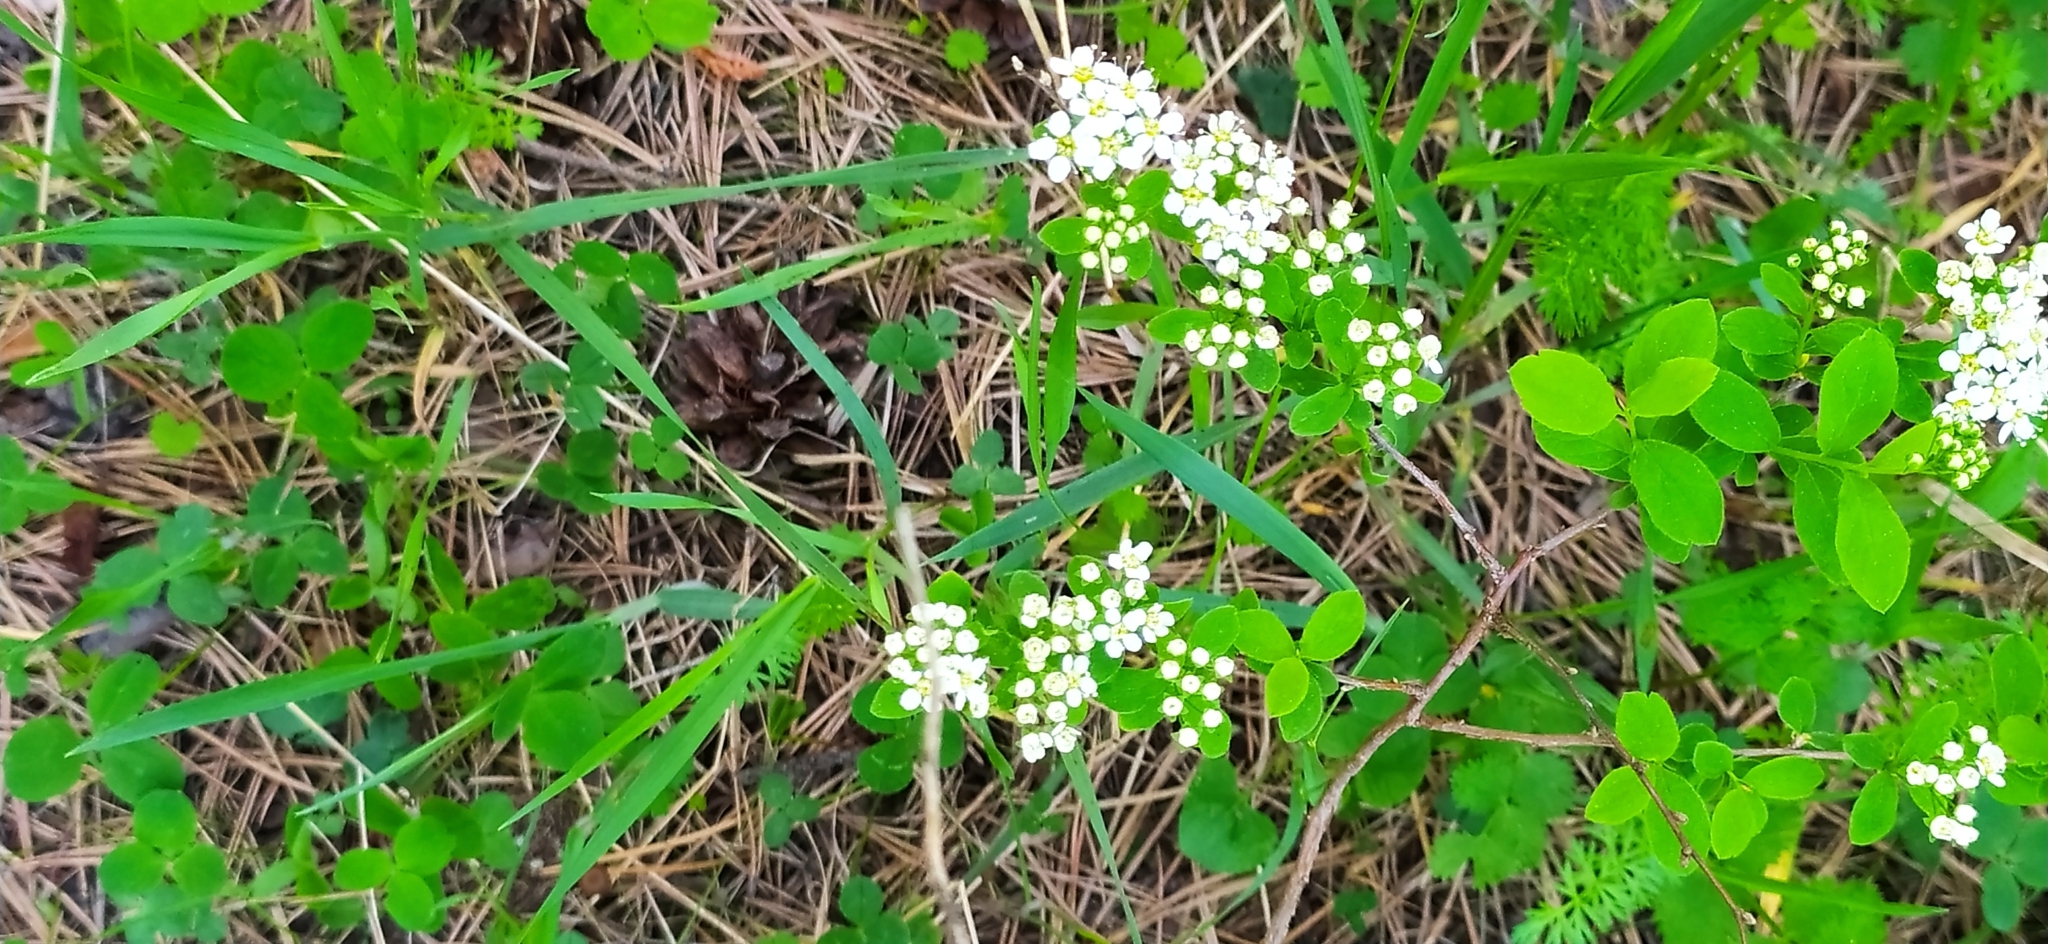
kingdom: Plantae
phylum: Tracheophyta
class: Magnoliopsida
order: Rosales
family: Rosaceae
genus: Spiraea
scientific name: Spiraea media
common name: Russian spiraea
